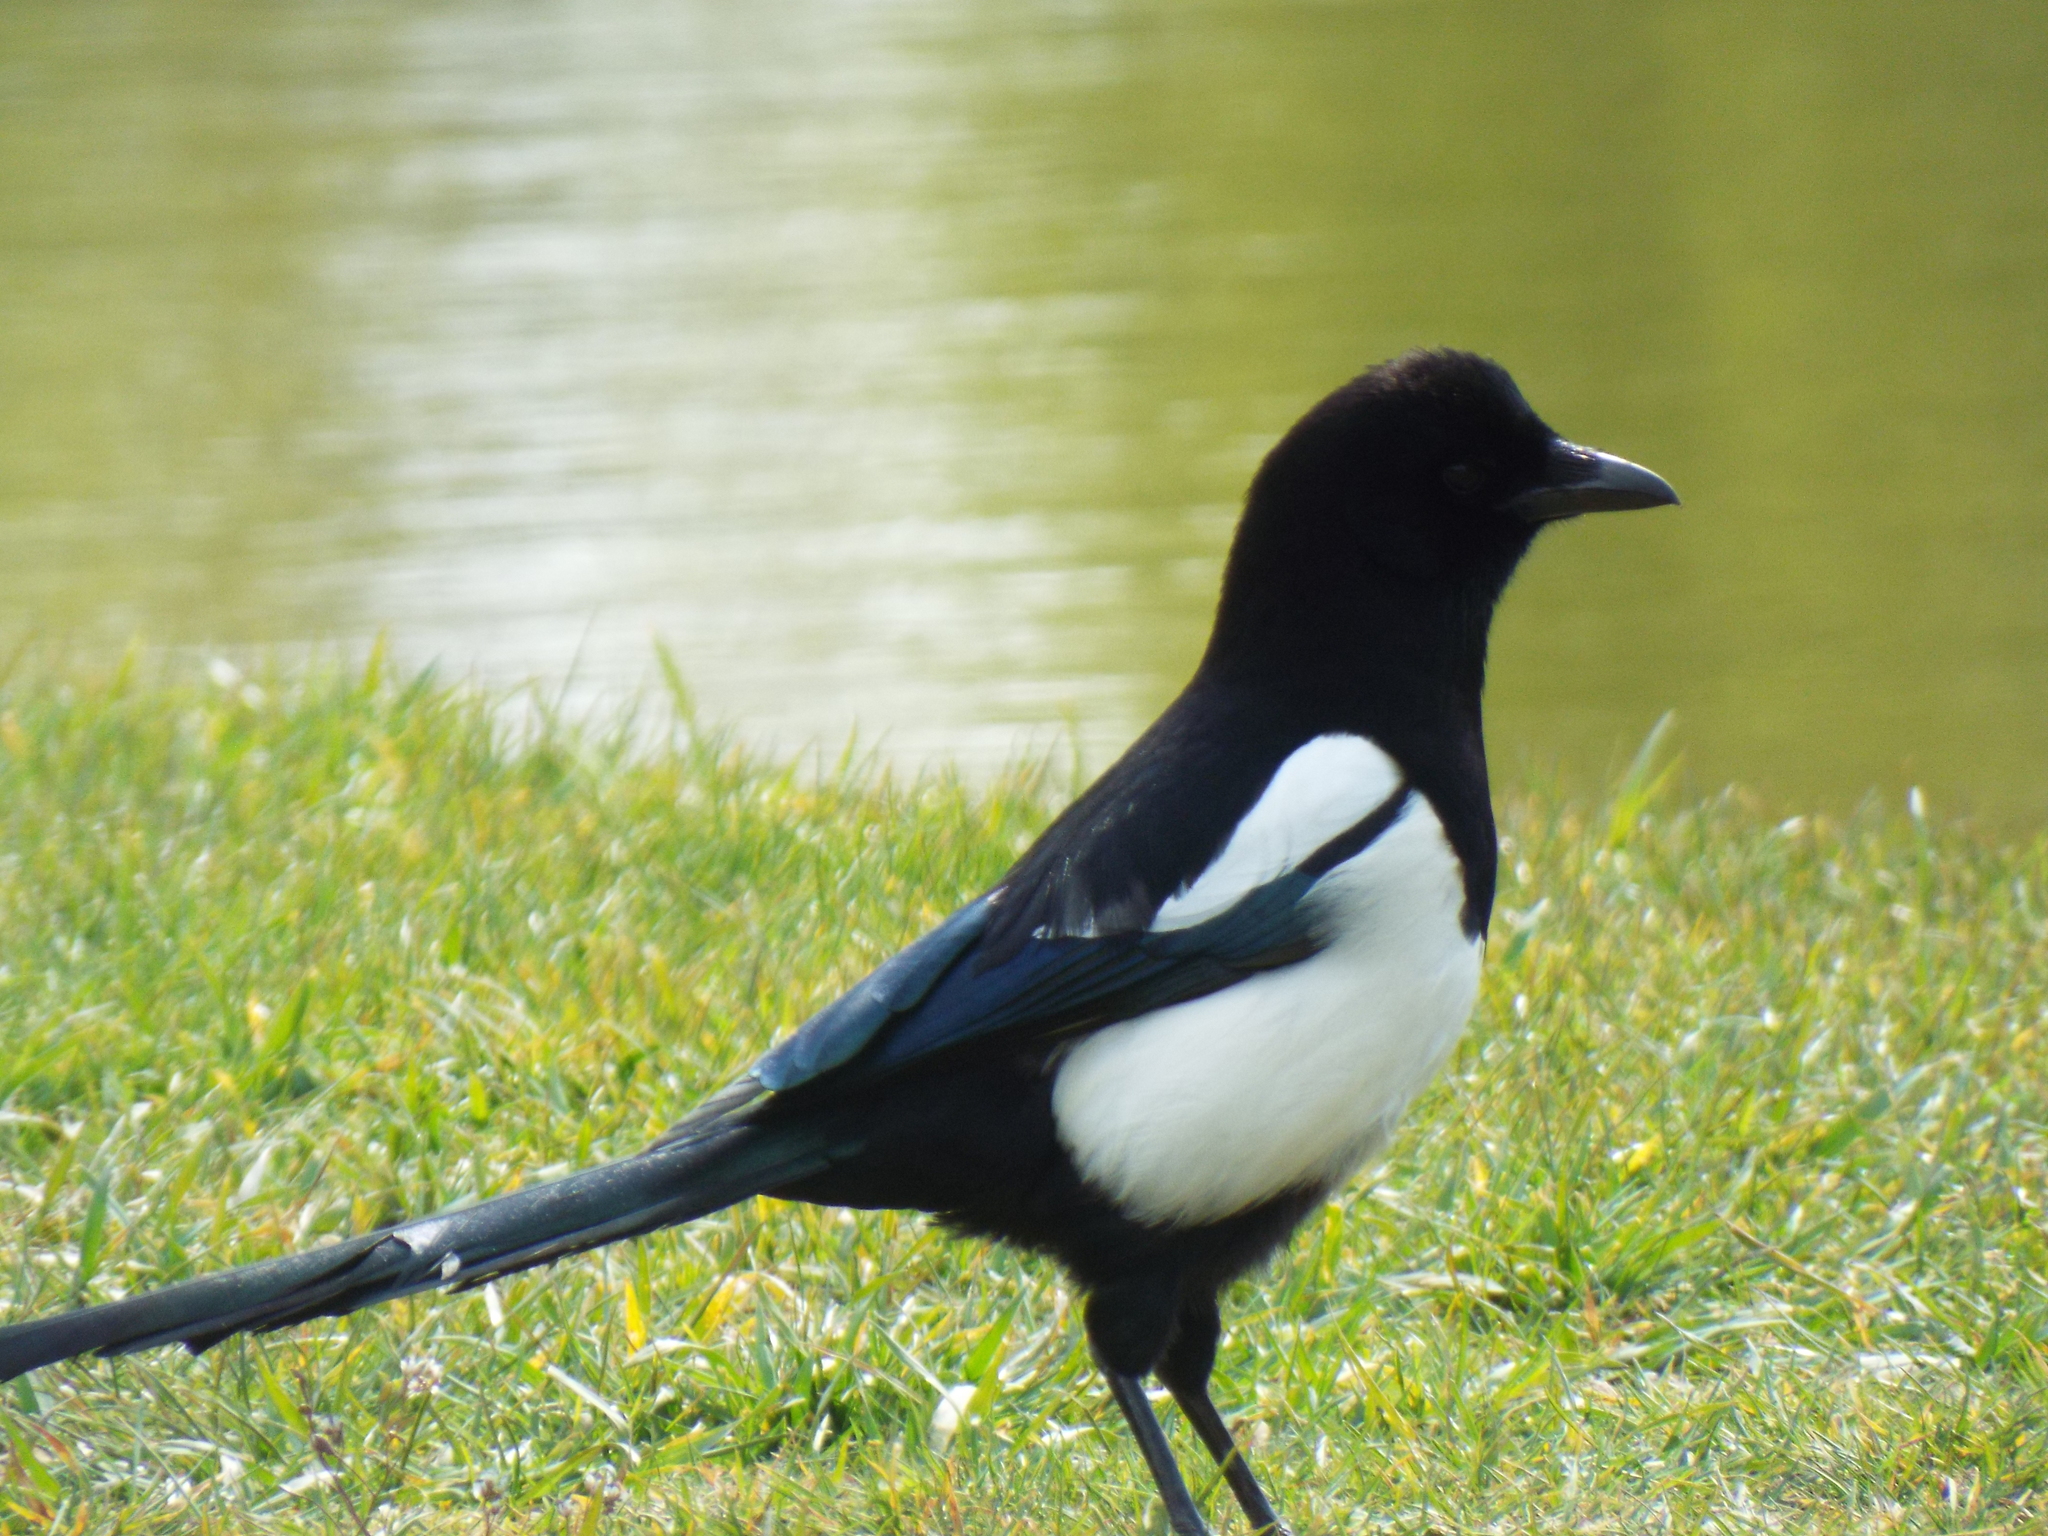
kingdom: Animalia
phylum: Chordata
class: Aves
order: Passeriformes
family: Corvidae
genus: Pica
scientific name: Pica pica
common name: Eurasian magpie
